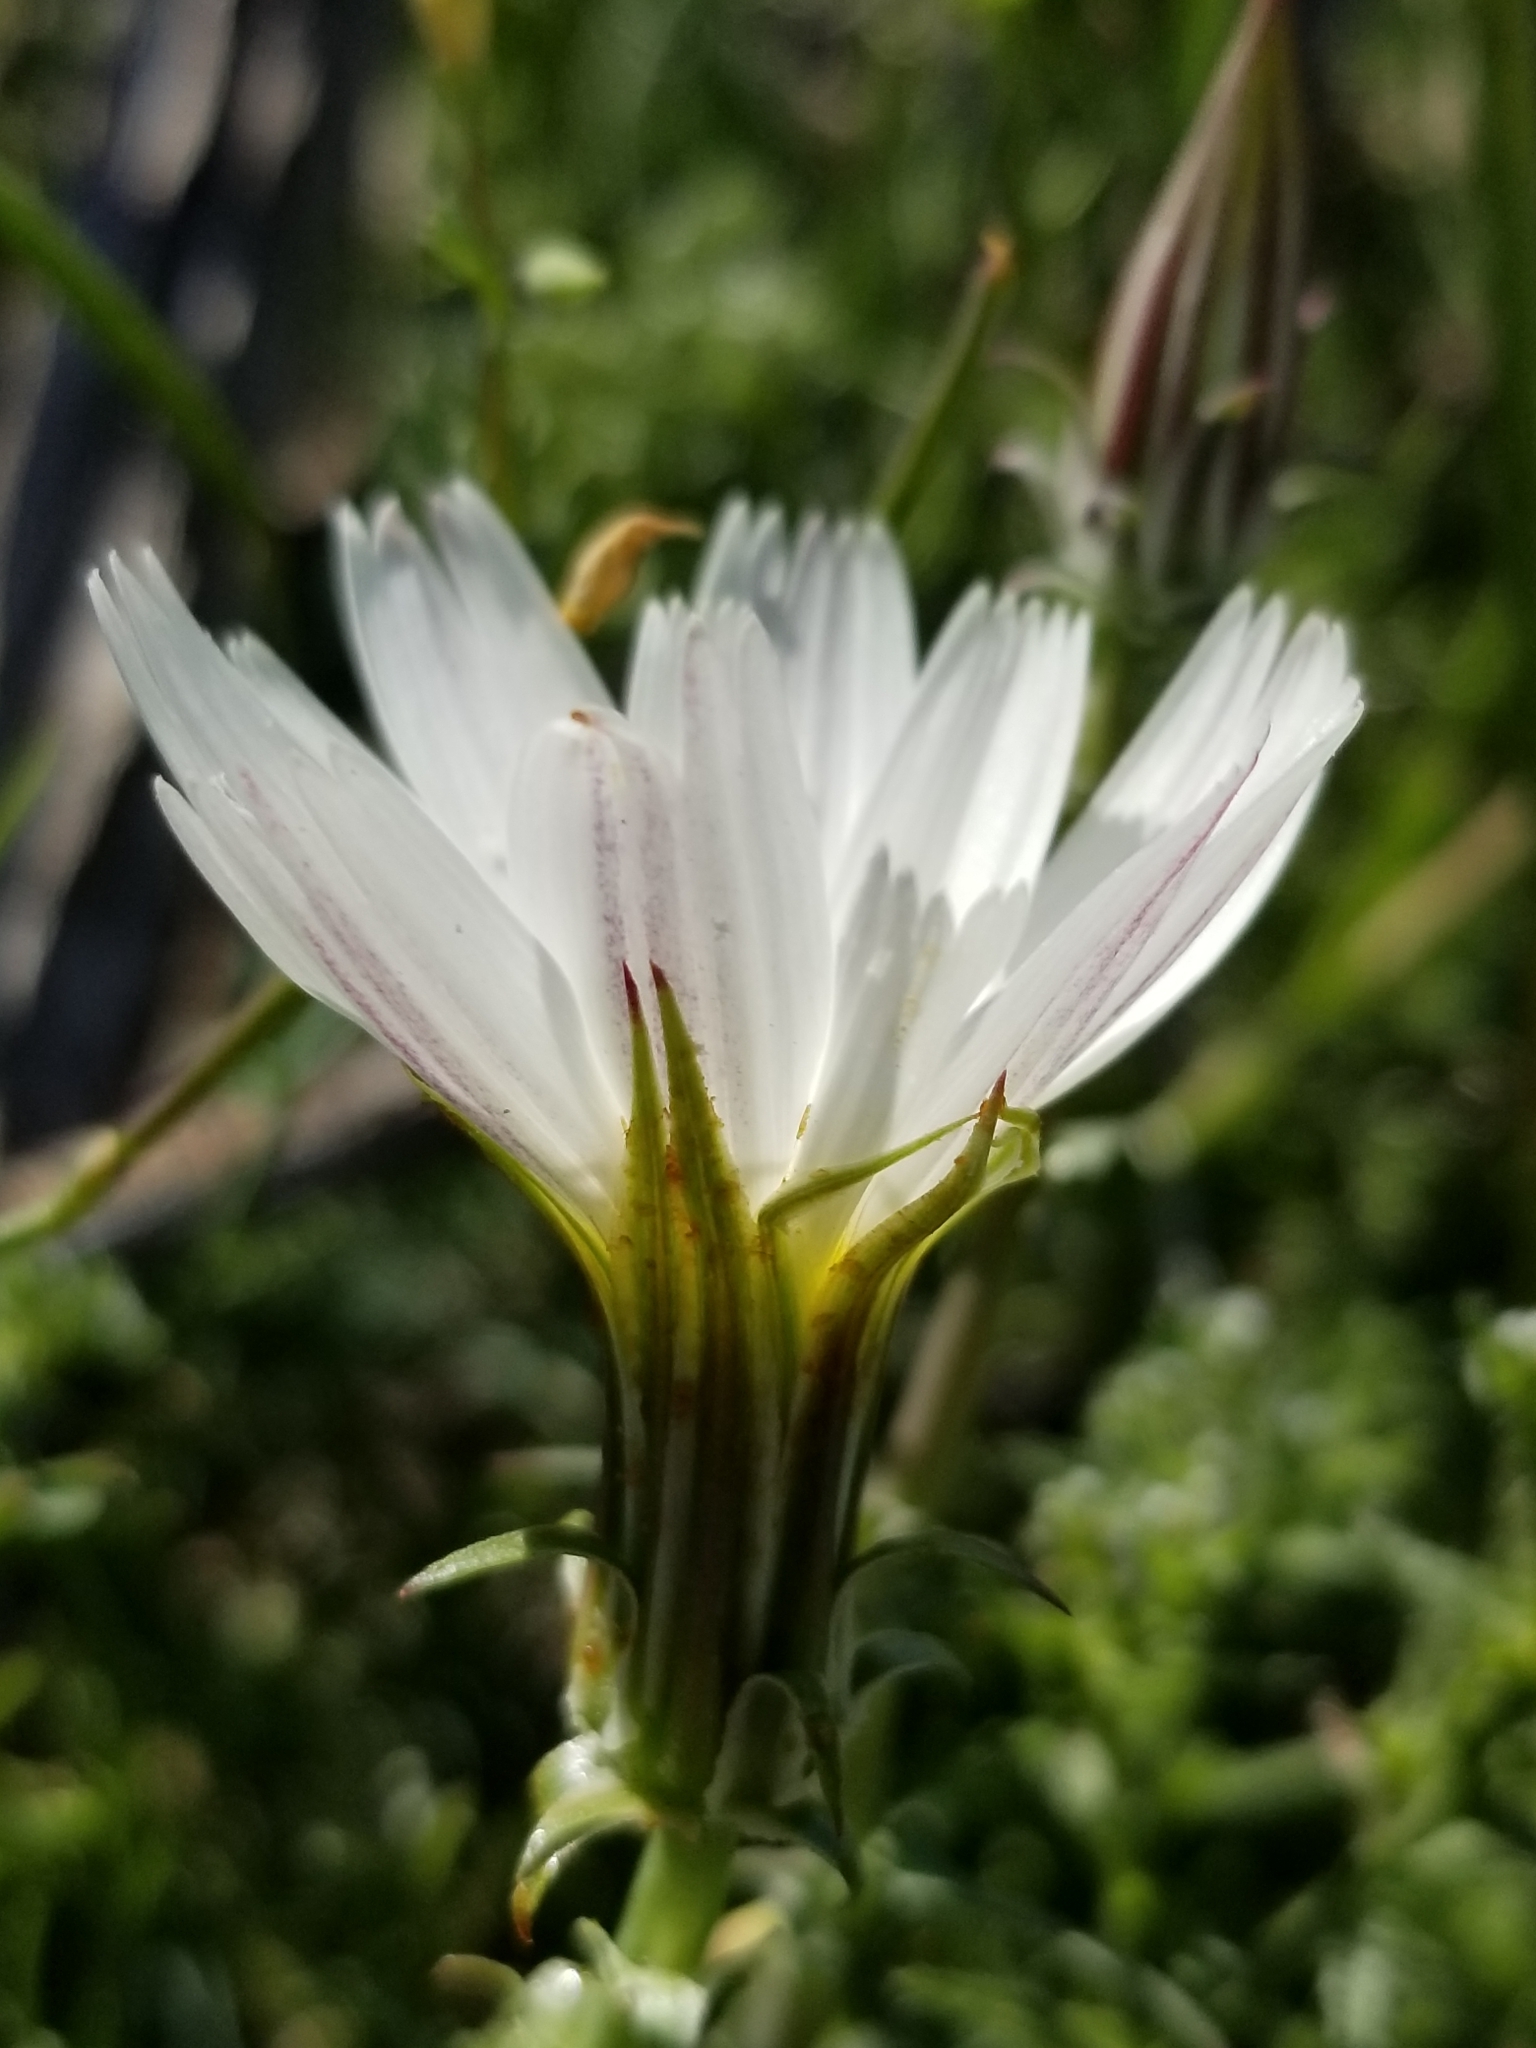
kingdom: Plantae
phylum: Tracheophyta
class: Magnoliopsida
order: Asterales
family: Asteraceae
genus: Rafinesquia
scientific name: Rafinesquia neomexicana
